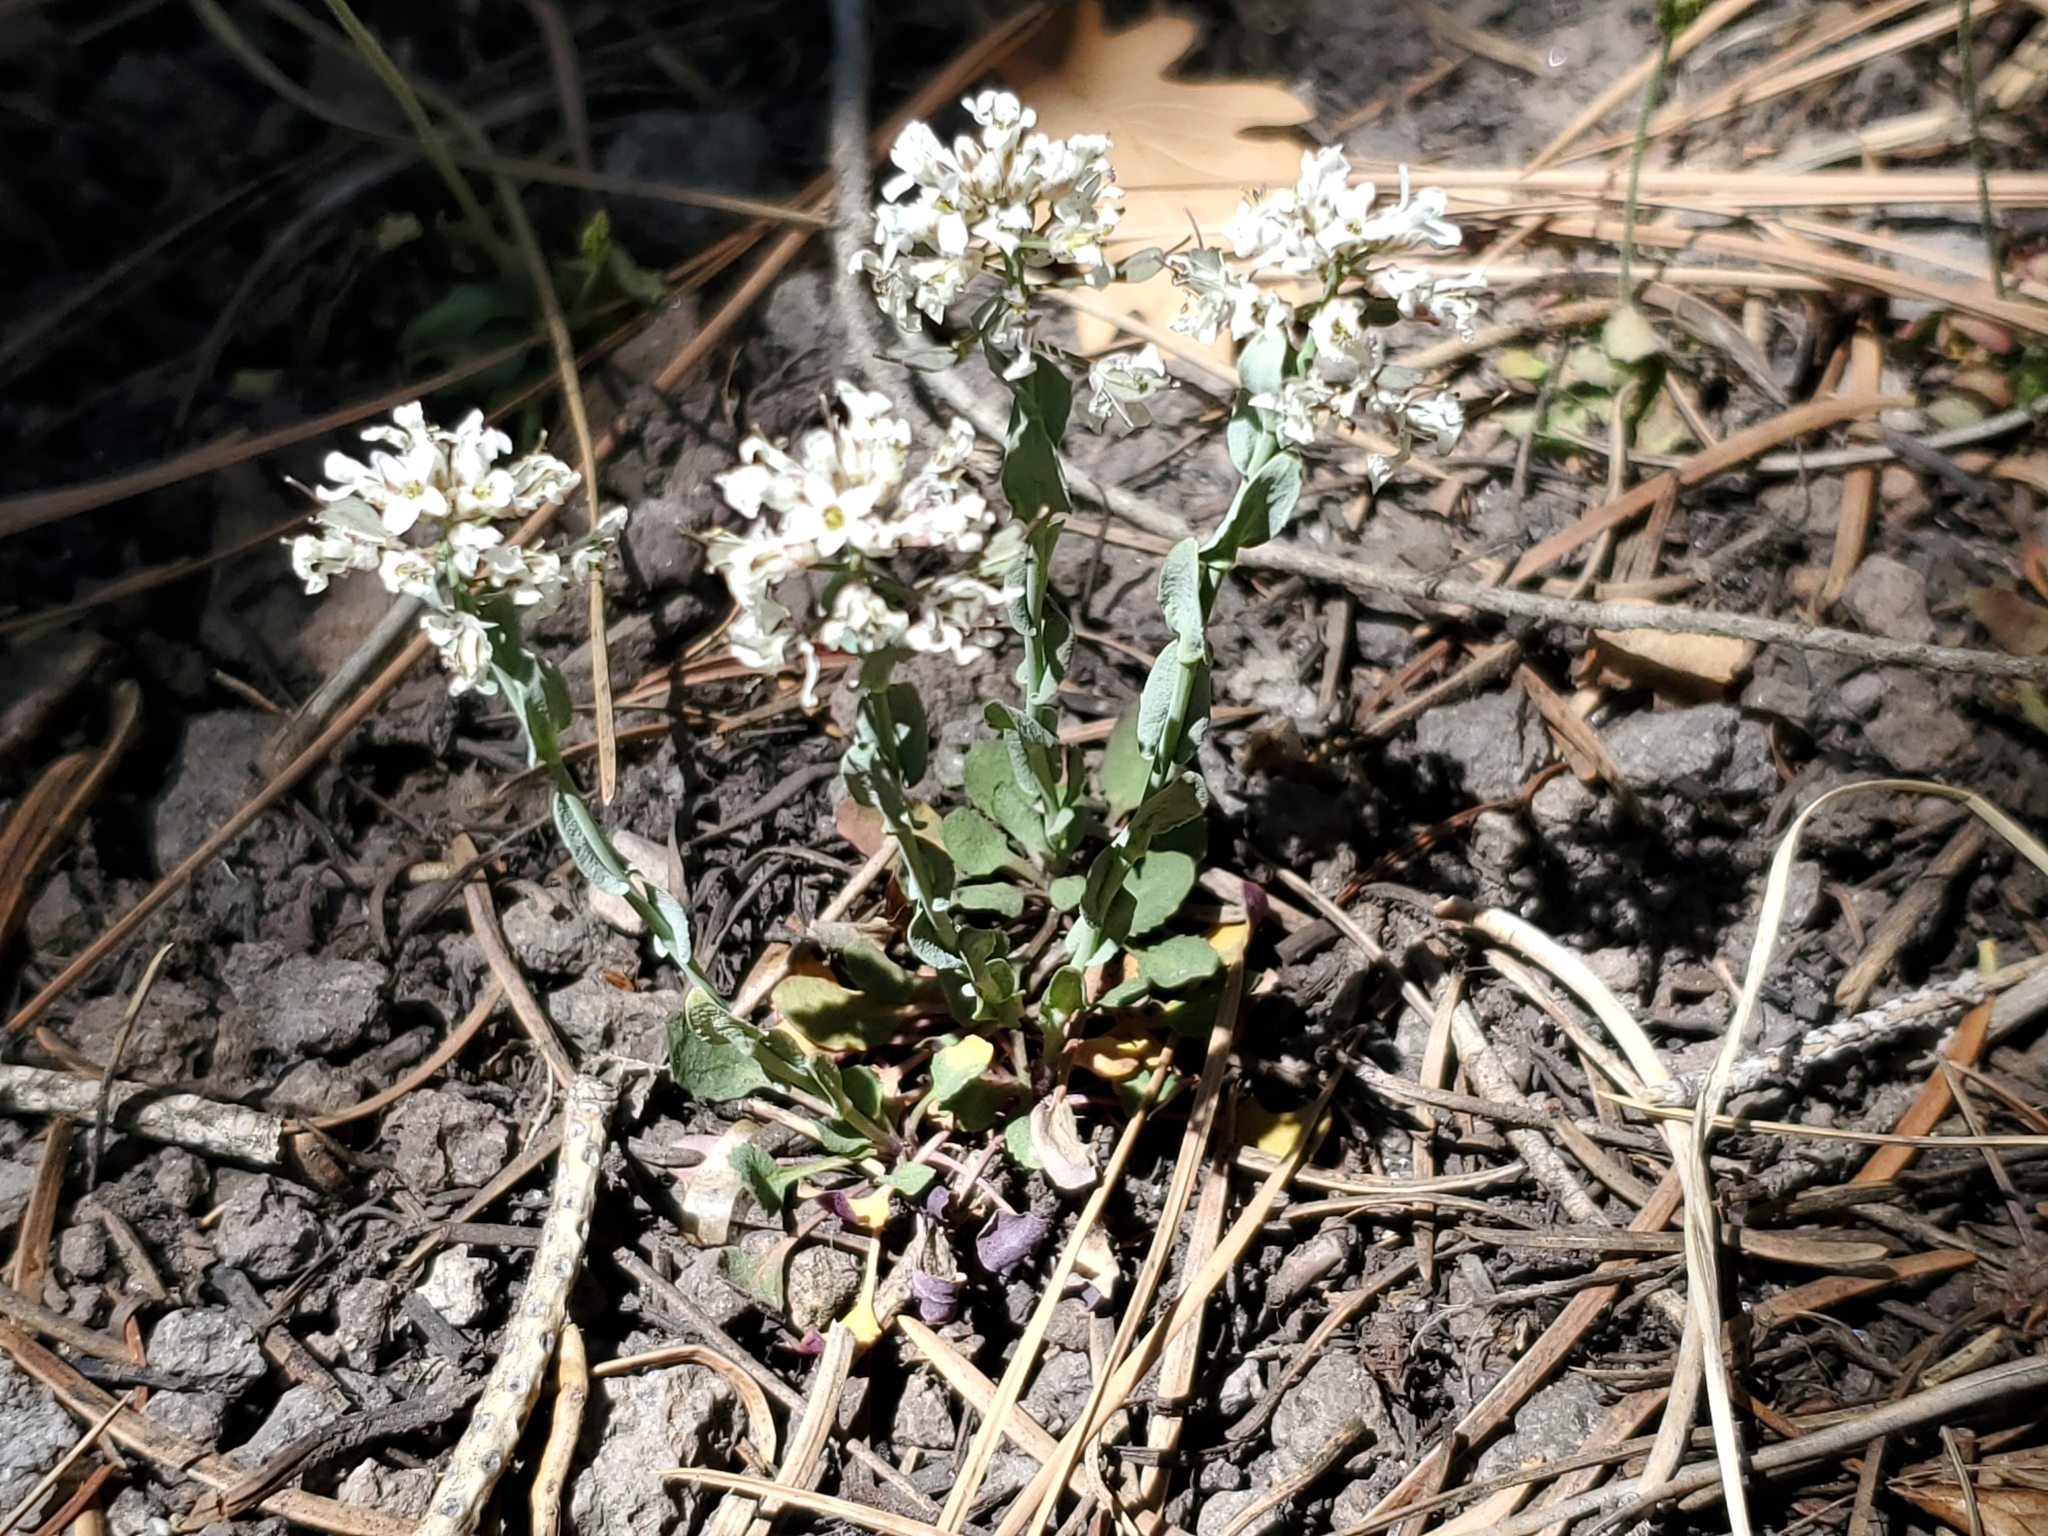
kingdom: Plantae
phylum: Tracheophyta
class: Magnoliopsida
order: Brassicales
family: Brassicaceae
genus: Noccaea
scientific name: Noccaea fendleri
